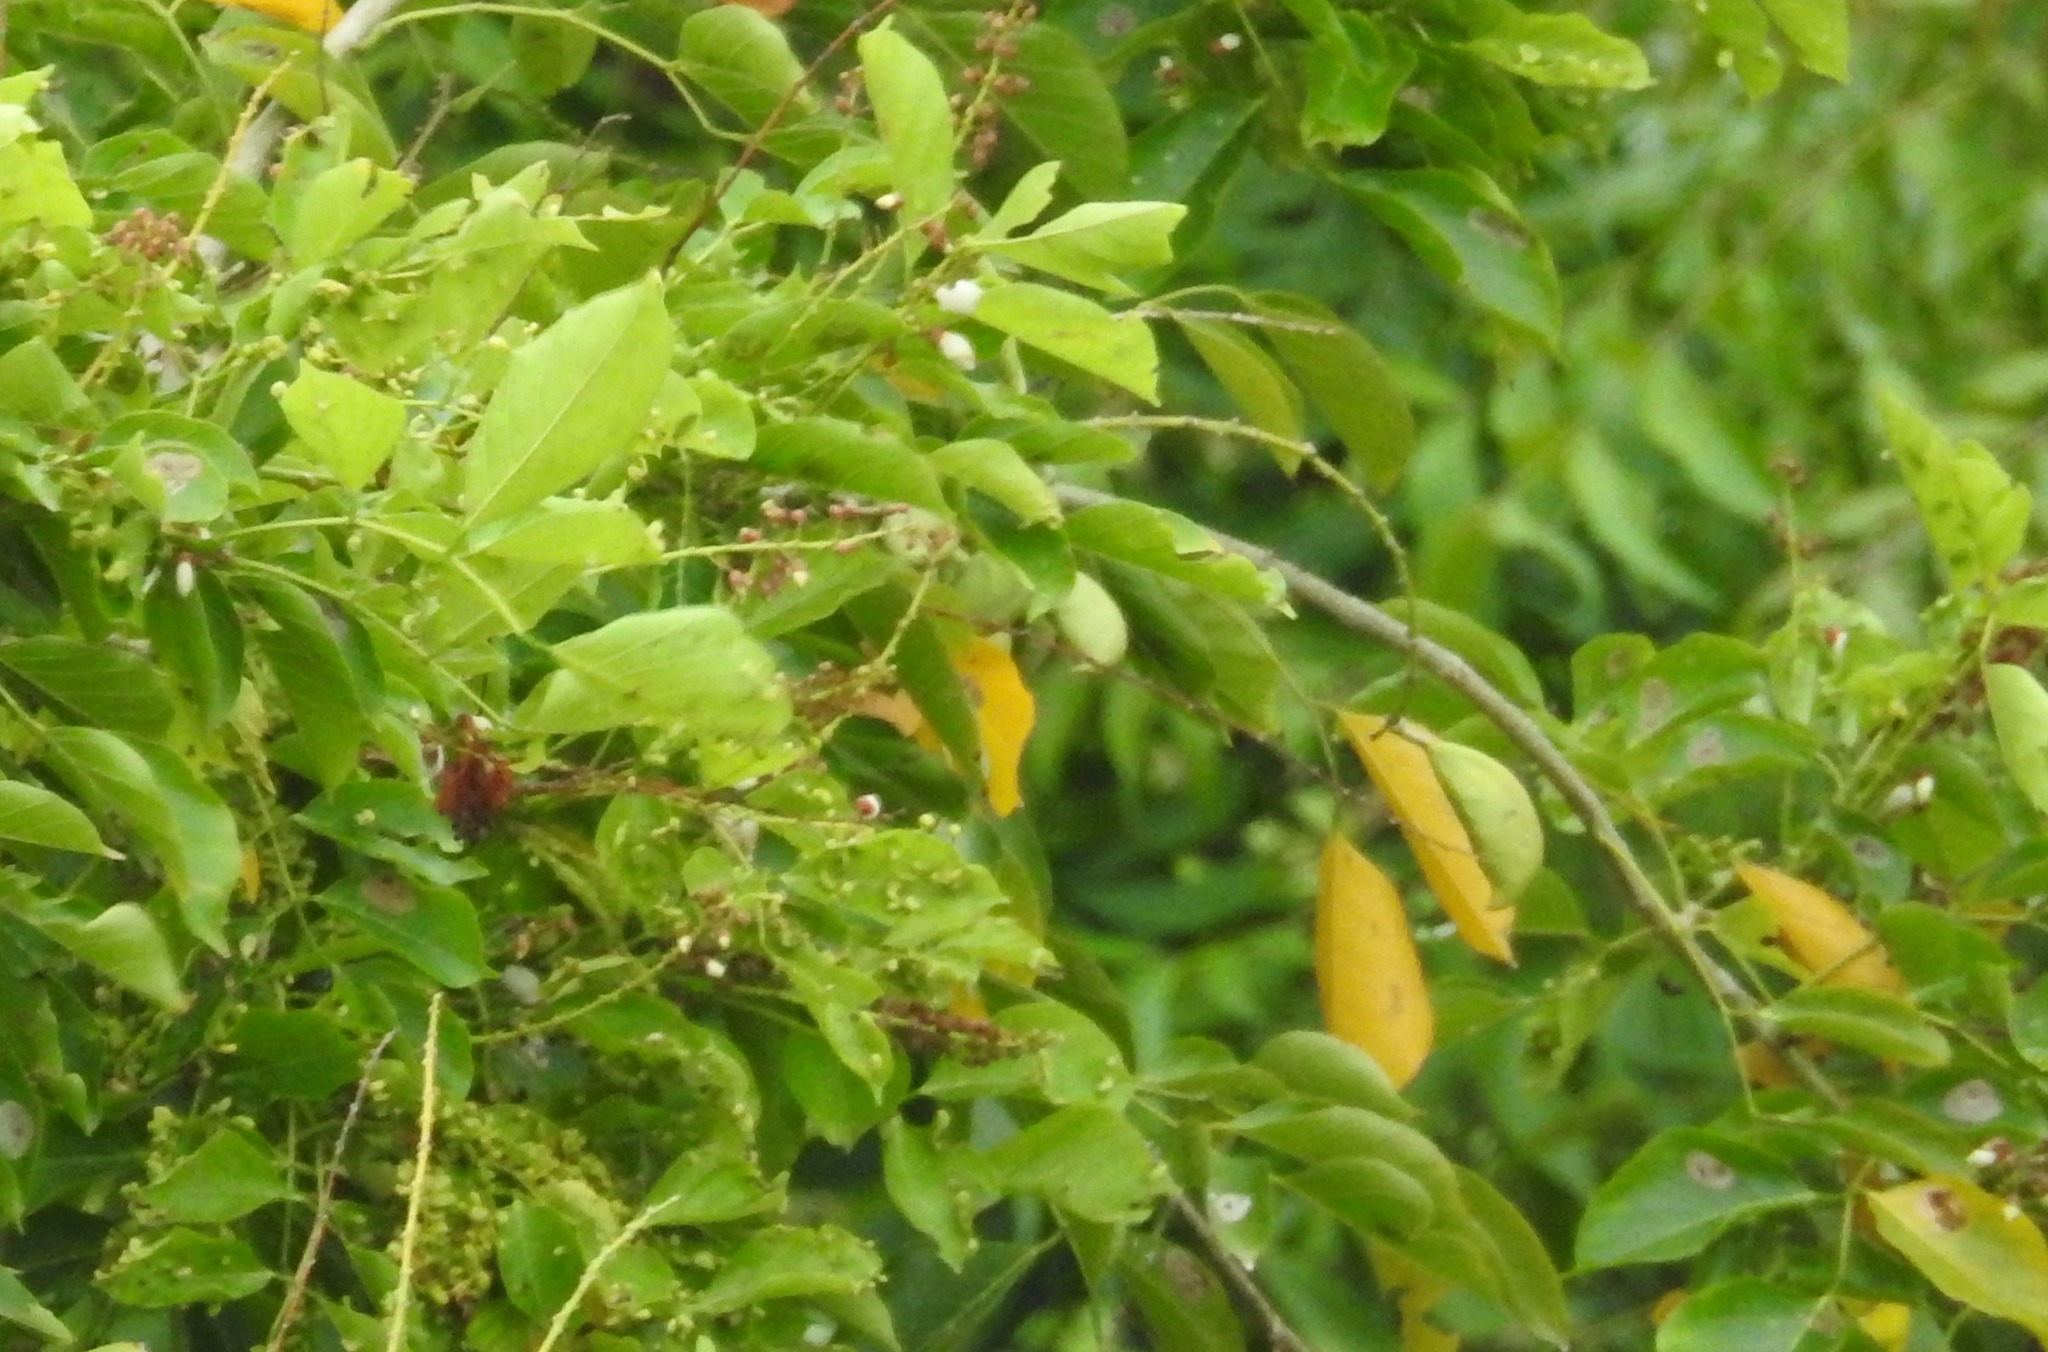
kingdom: Plantae
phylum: Tracheophyta
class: Magnoliopsida
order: Fabales
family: Fabaceae
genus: Pongamia
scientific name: Pongamia pinnata
